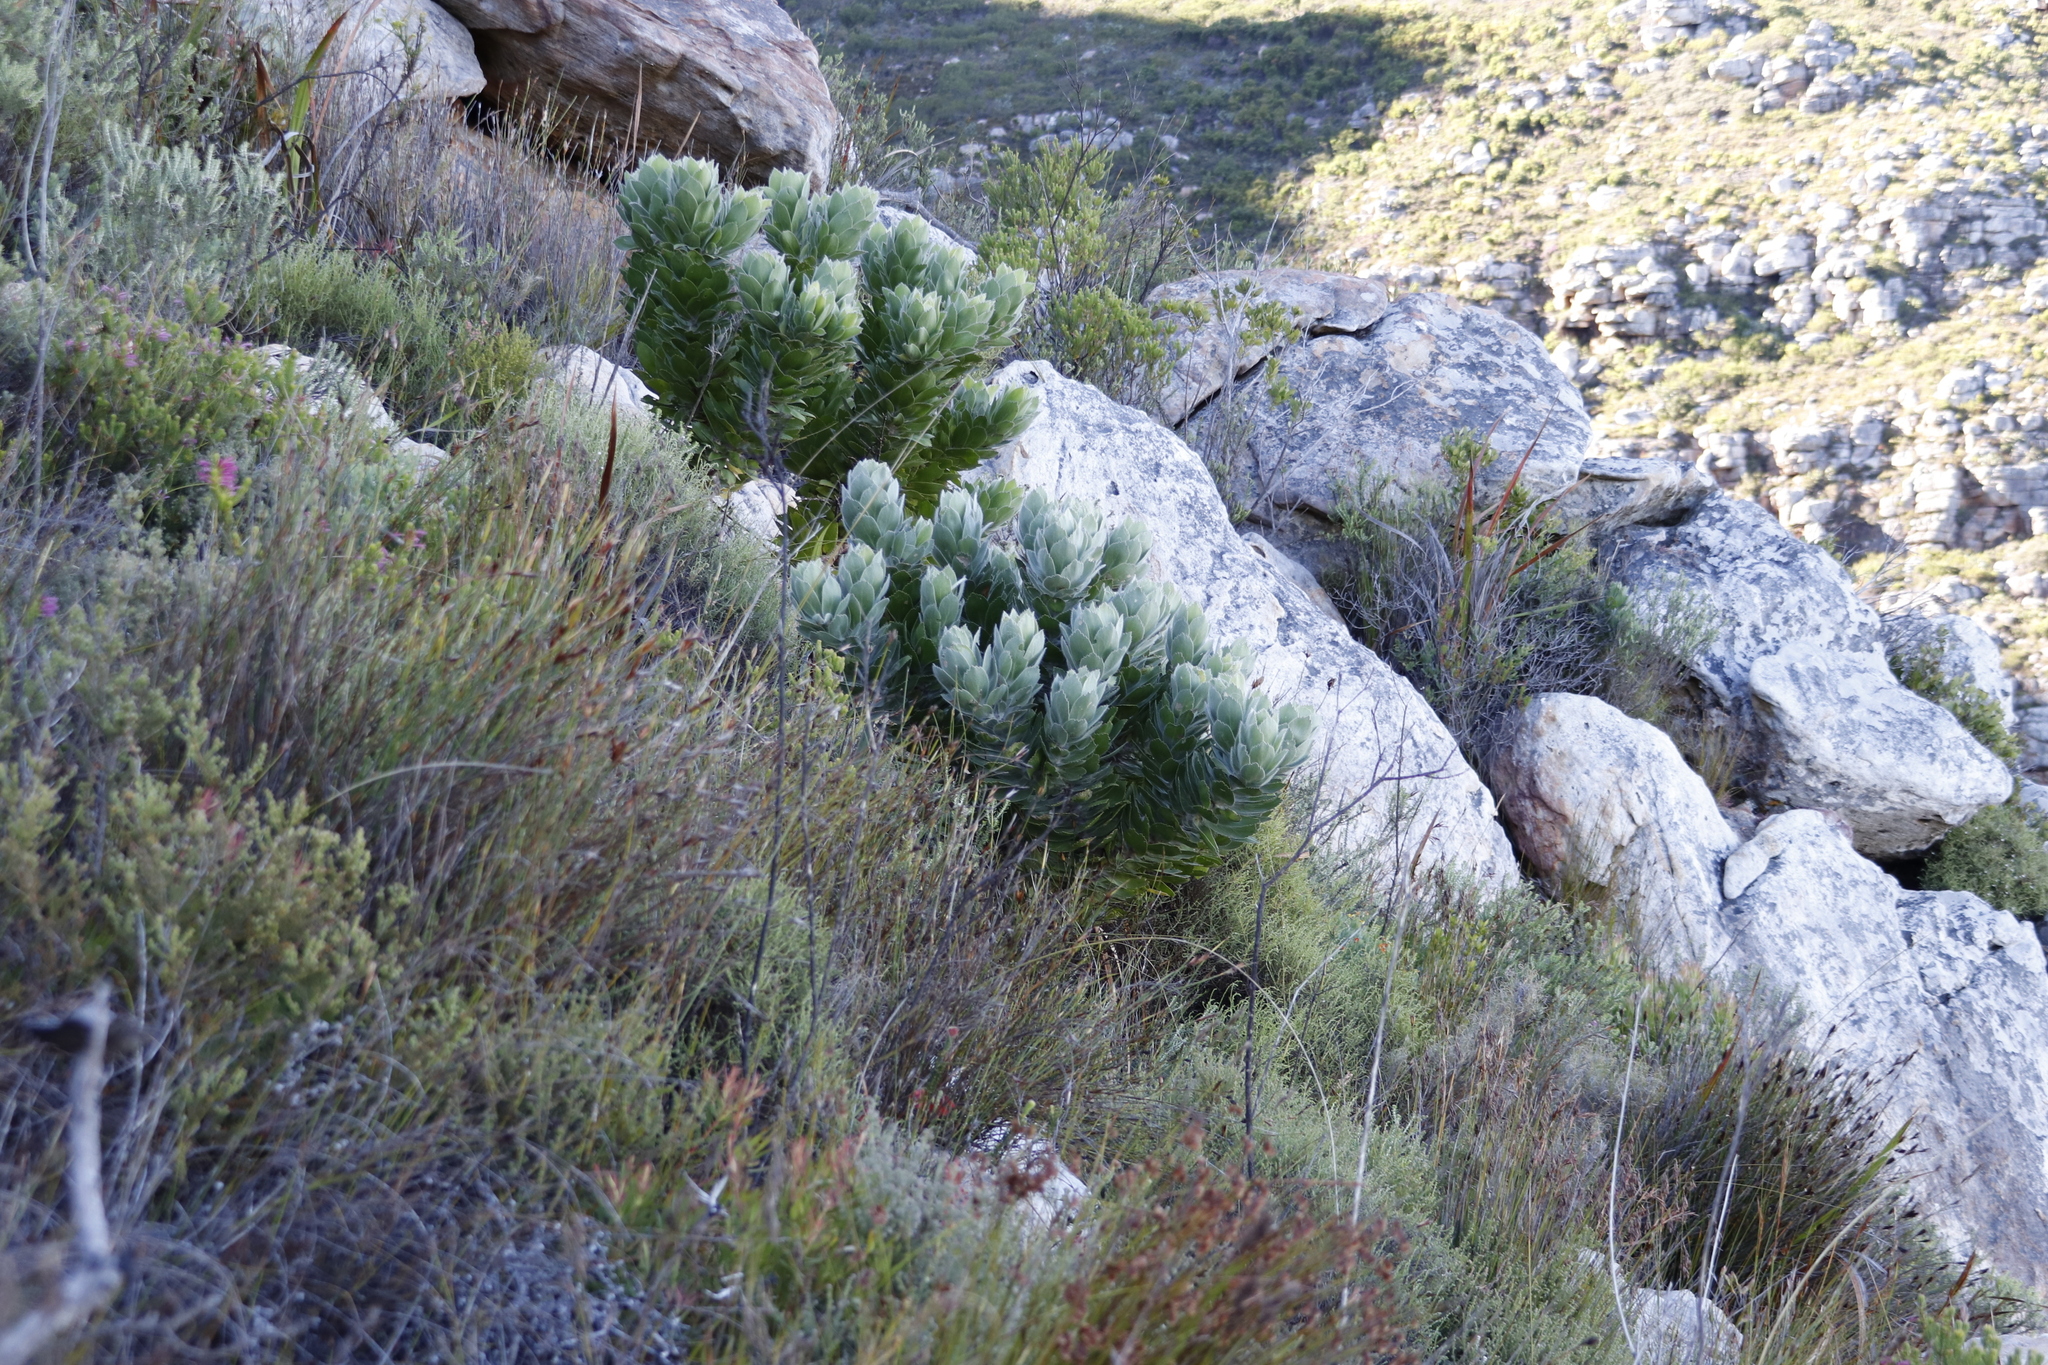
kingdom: Plantae
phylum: Tracheophyta
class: Magnoliopsida
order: Proteales
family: Proteaceae
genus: Leucospermum
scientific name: Leucospermum conocarpodendron
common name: Tree pincushion
